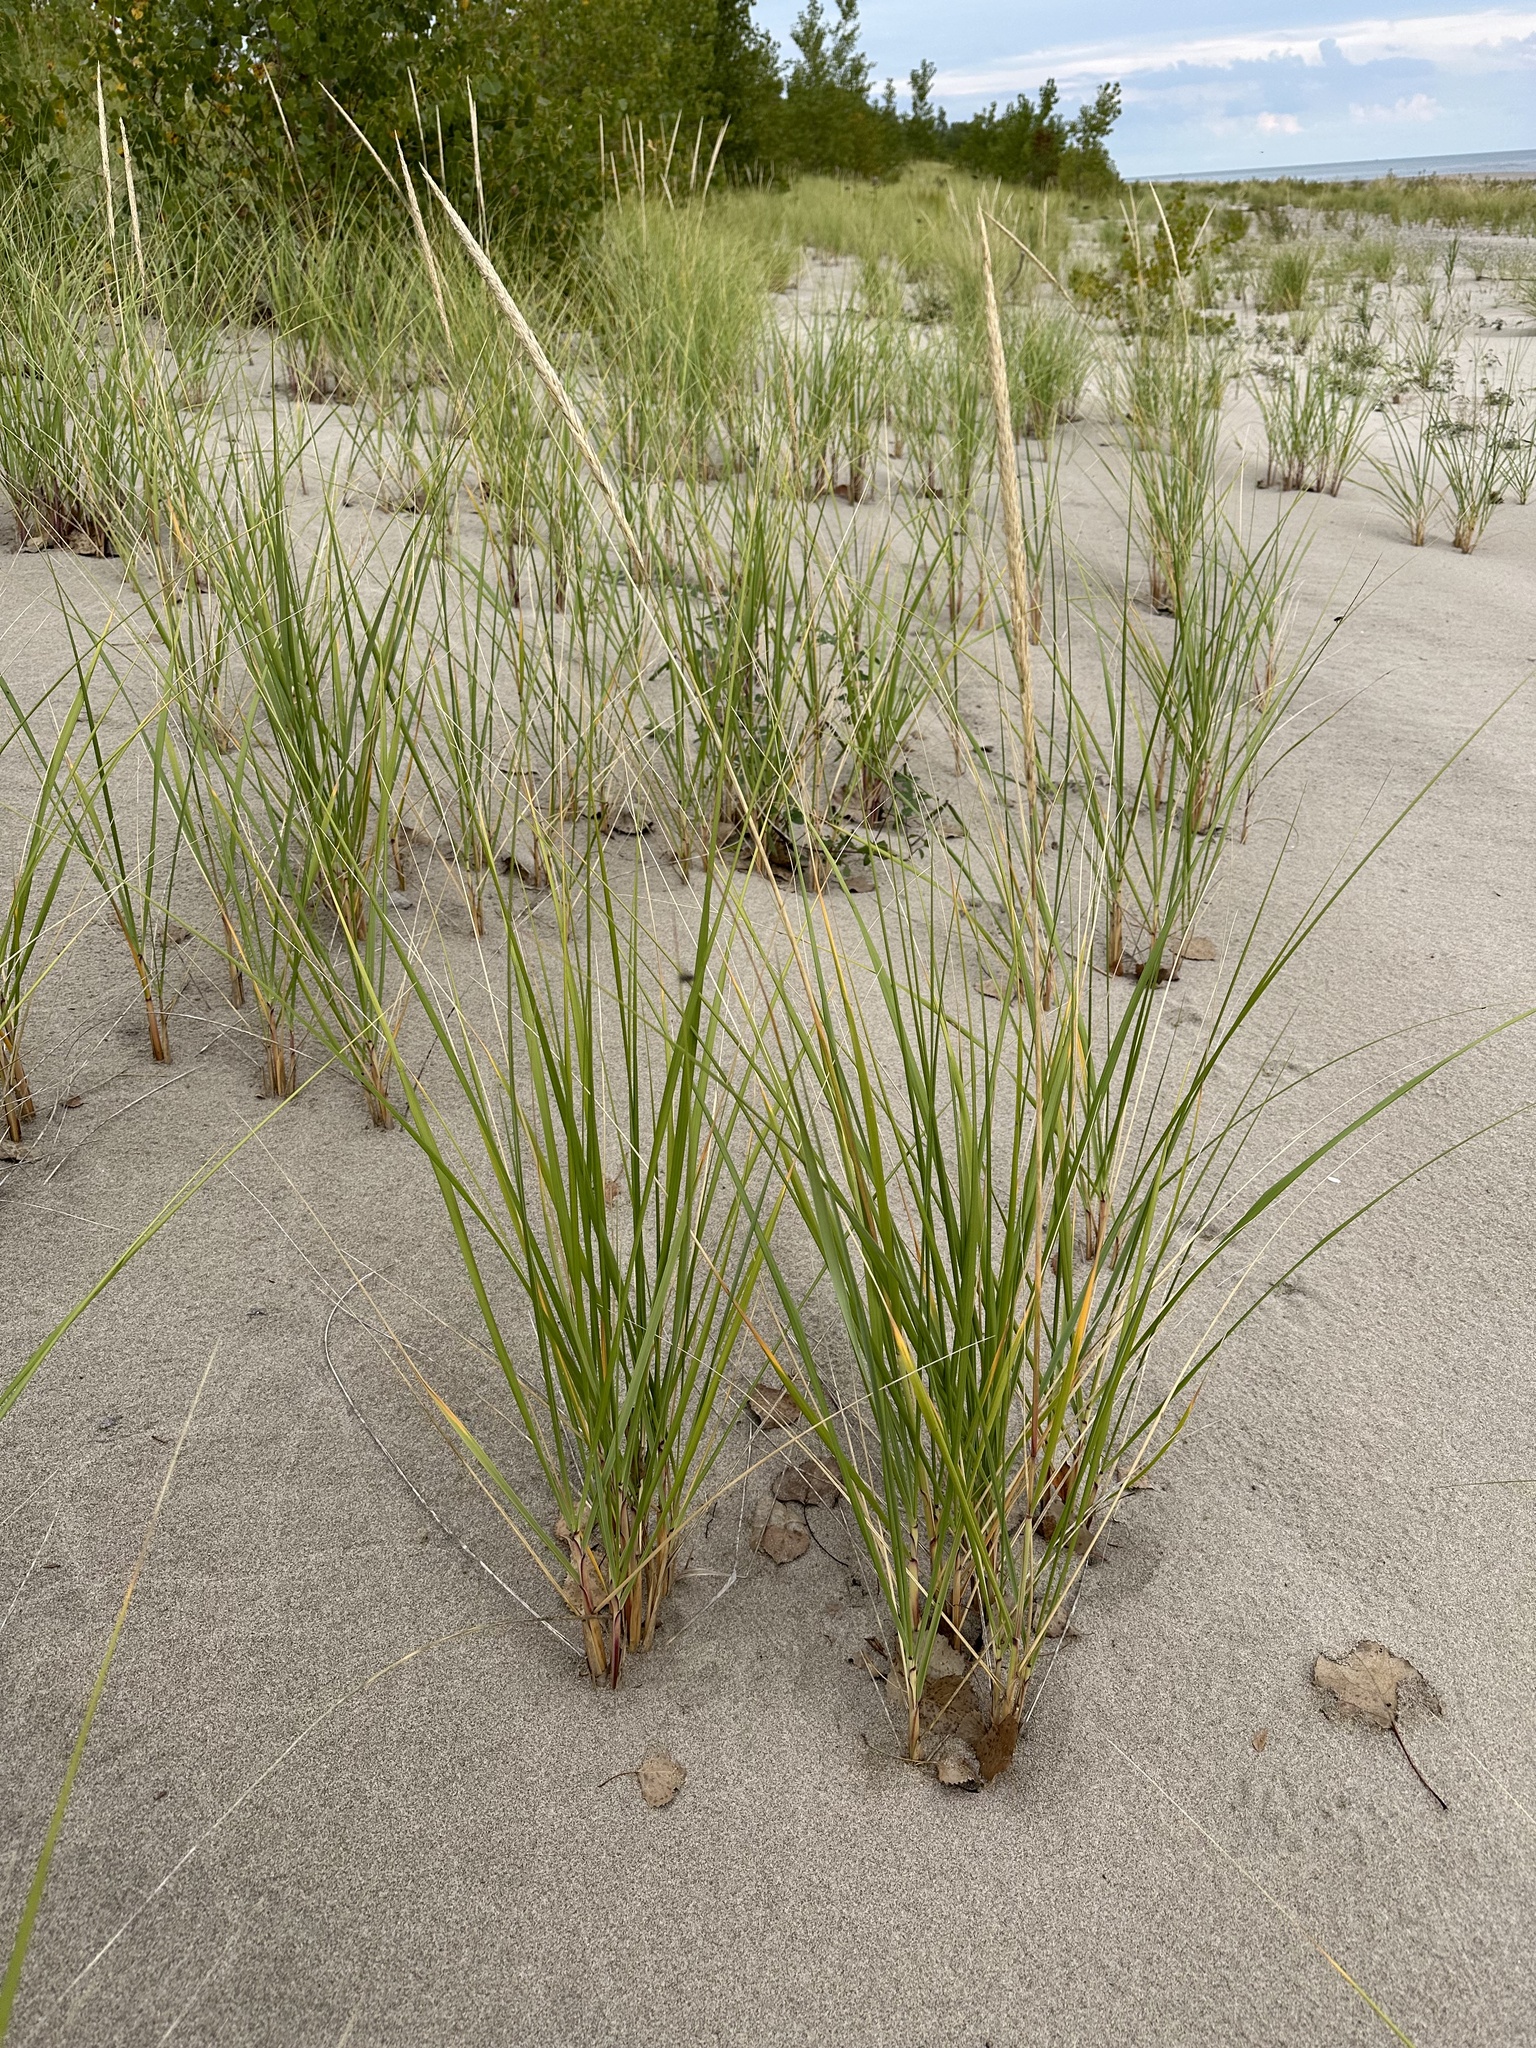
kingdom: Plantae
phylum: Tracheophyta
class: Liliopsida
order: Poales
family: Poaceae
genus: Calamagrostis
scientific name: Calamagrostis breviligulata
